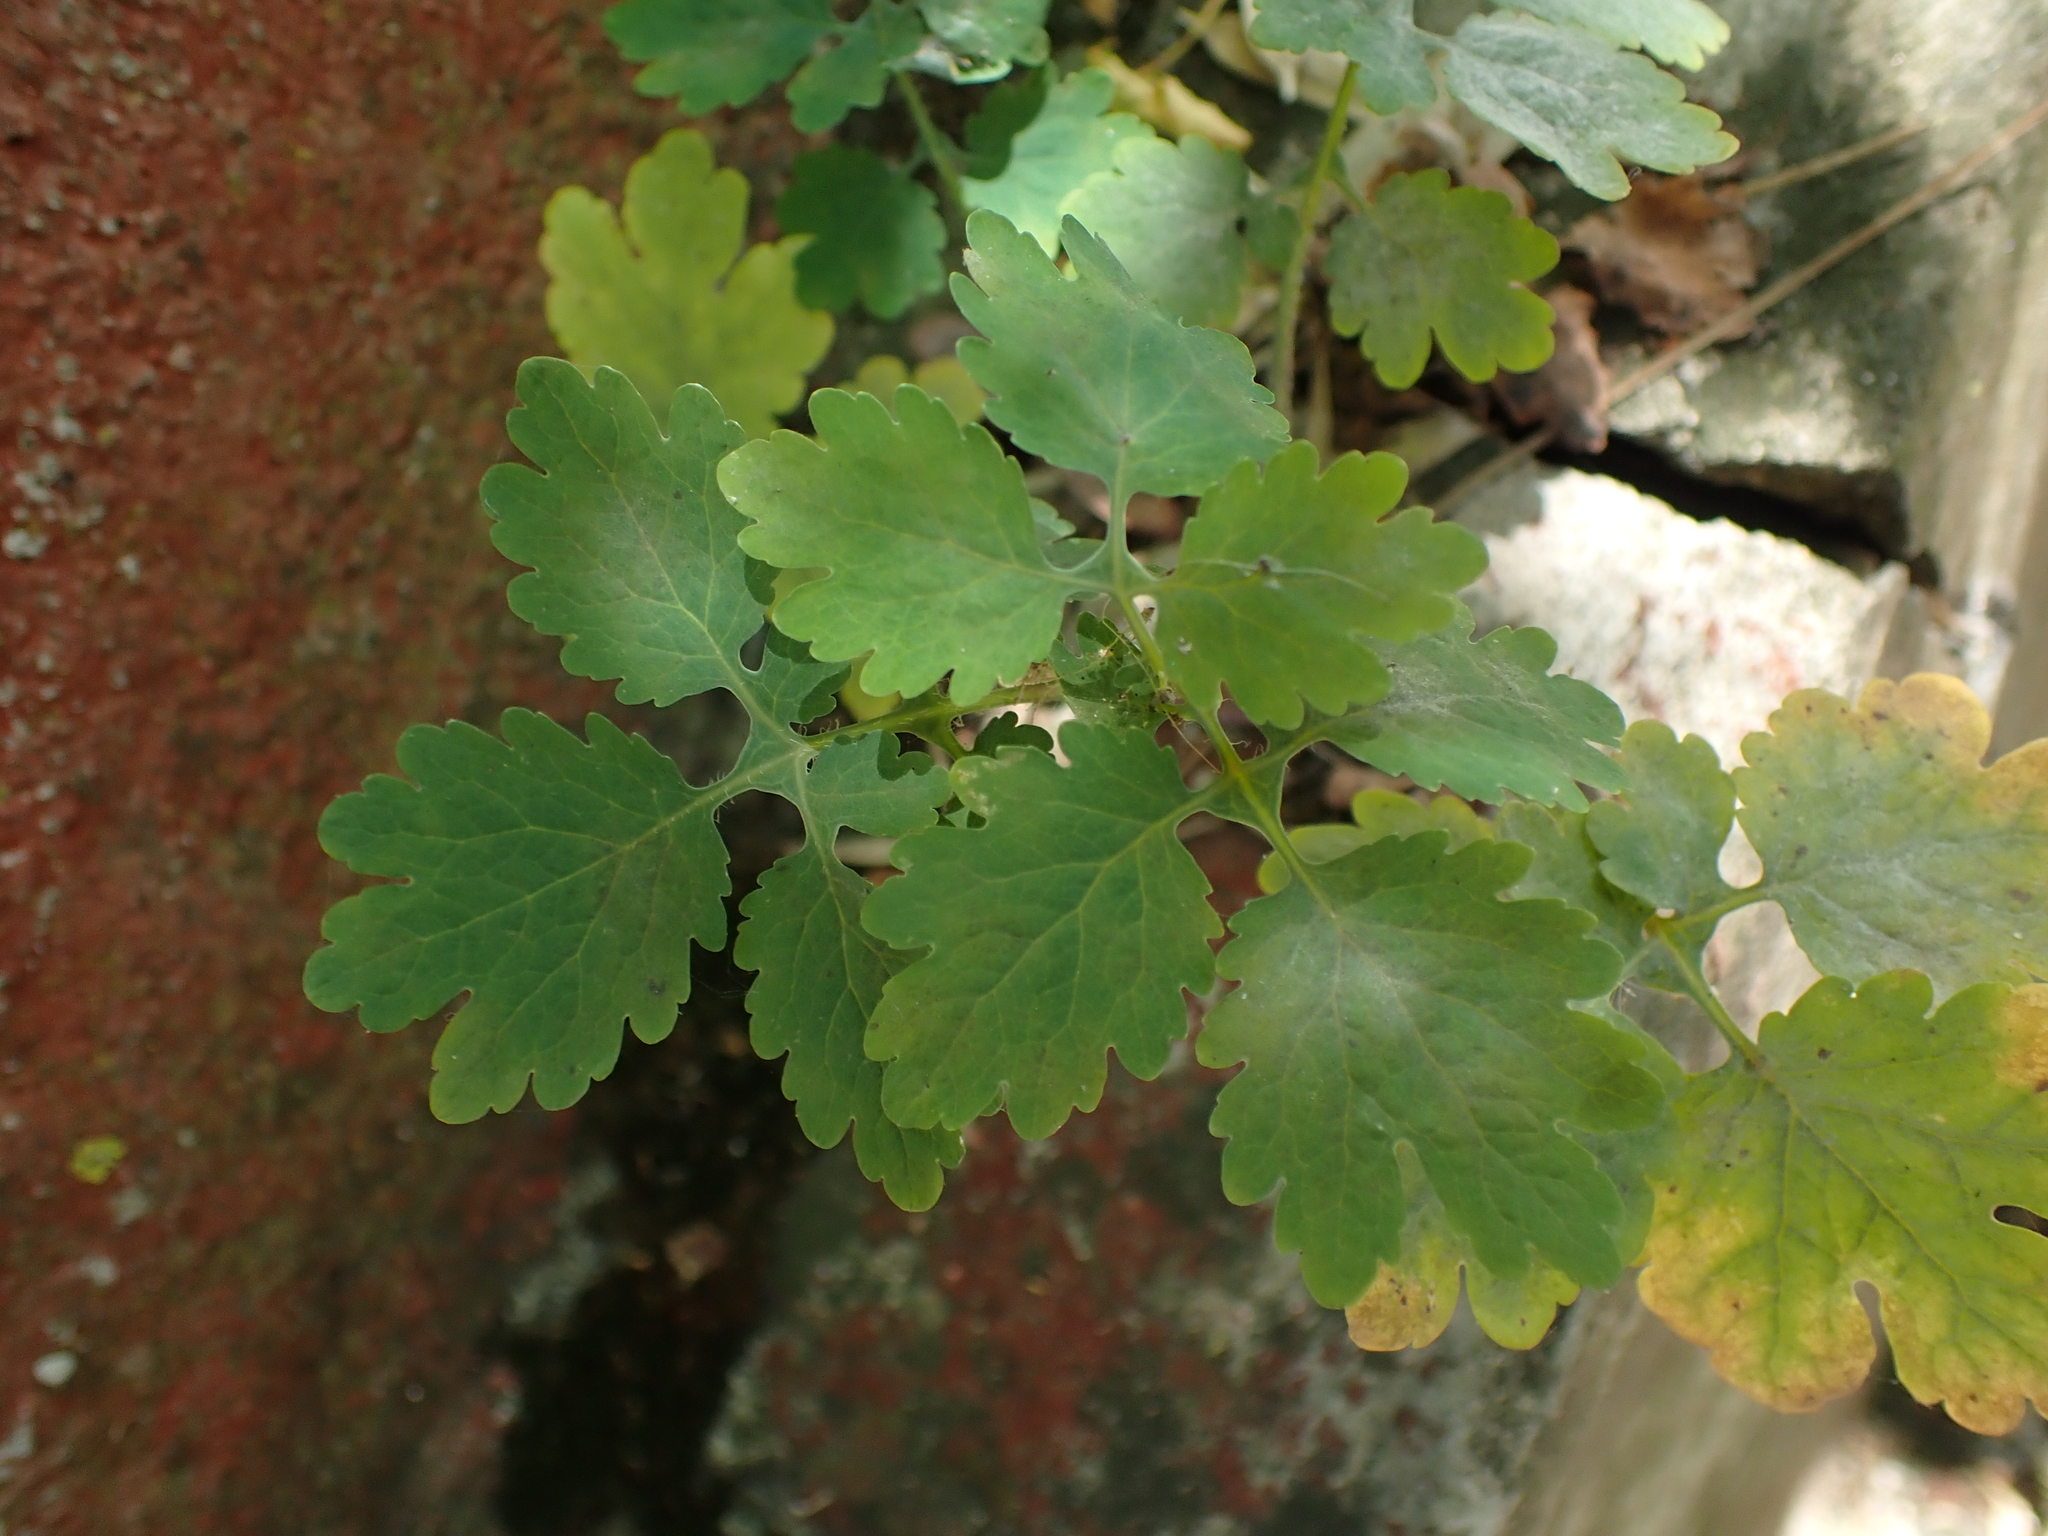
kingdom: Plantae
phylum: Tracheophyta
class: Magnoliopsida
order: Ranunculales
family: Papaveraceae
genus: Chelidonium
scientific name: Chelidonium majus
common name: Greater celandine
